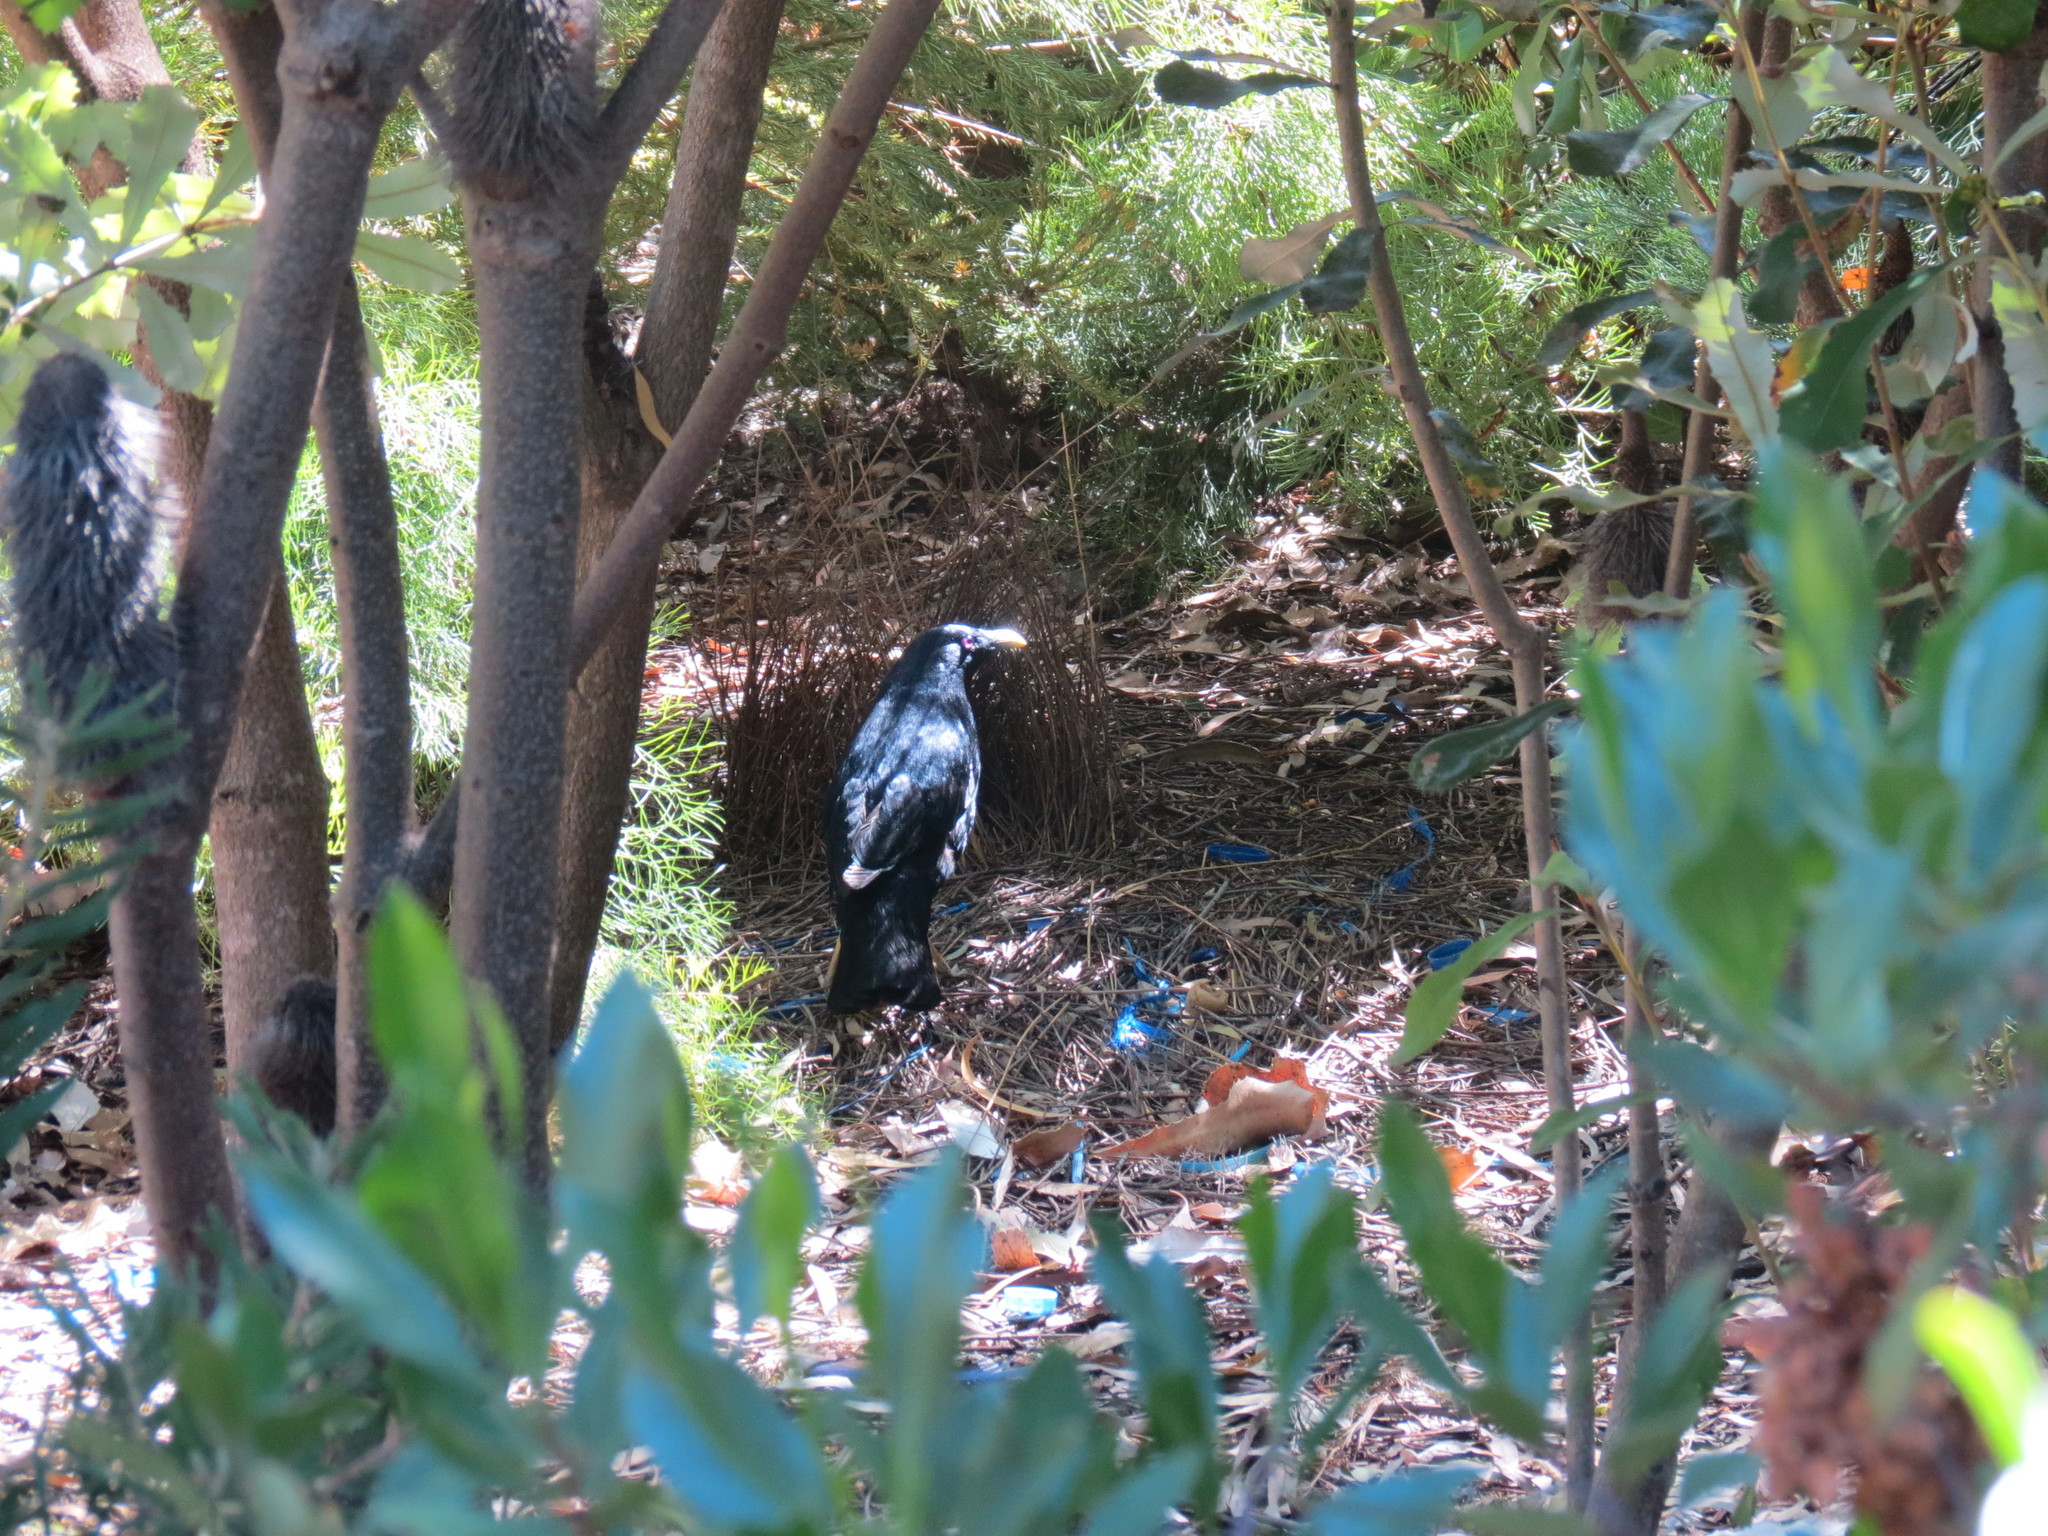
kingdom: Animalia
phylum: Chordata
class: Aves
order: Passeriformes
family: Ptilonorhynchidae
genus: Ptilonorhynchus
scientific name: Ptilonorhynchus violaceus
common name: Satin bowerbird
